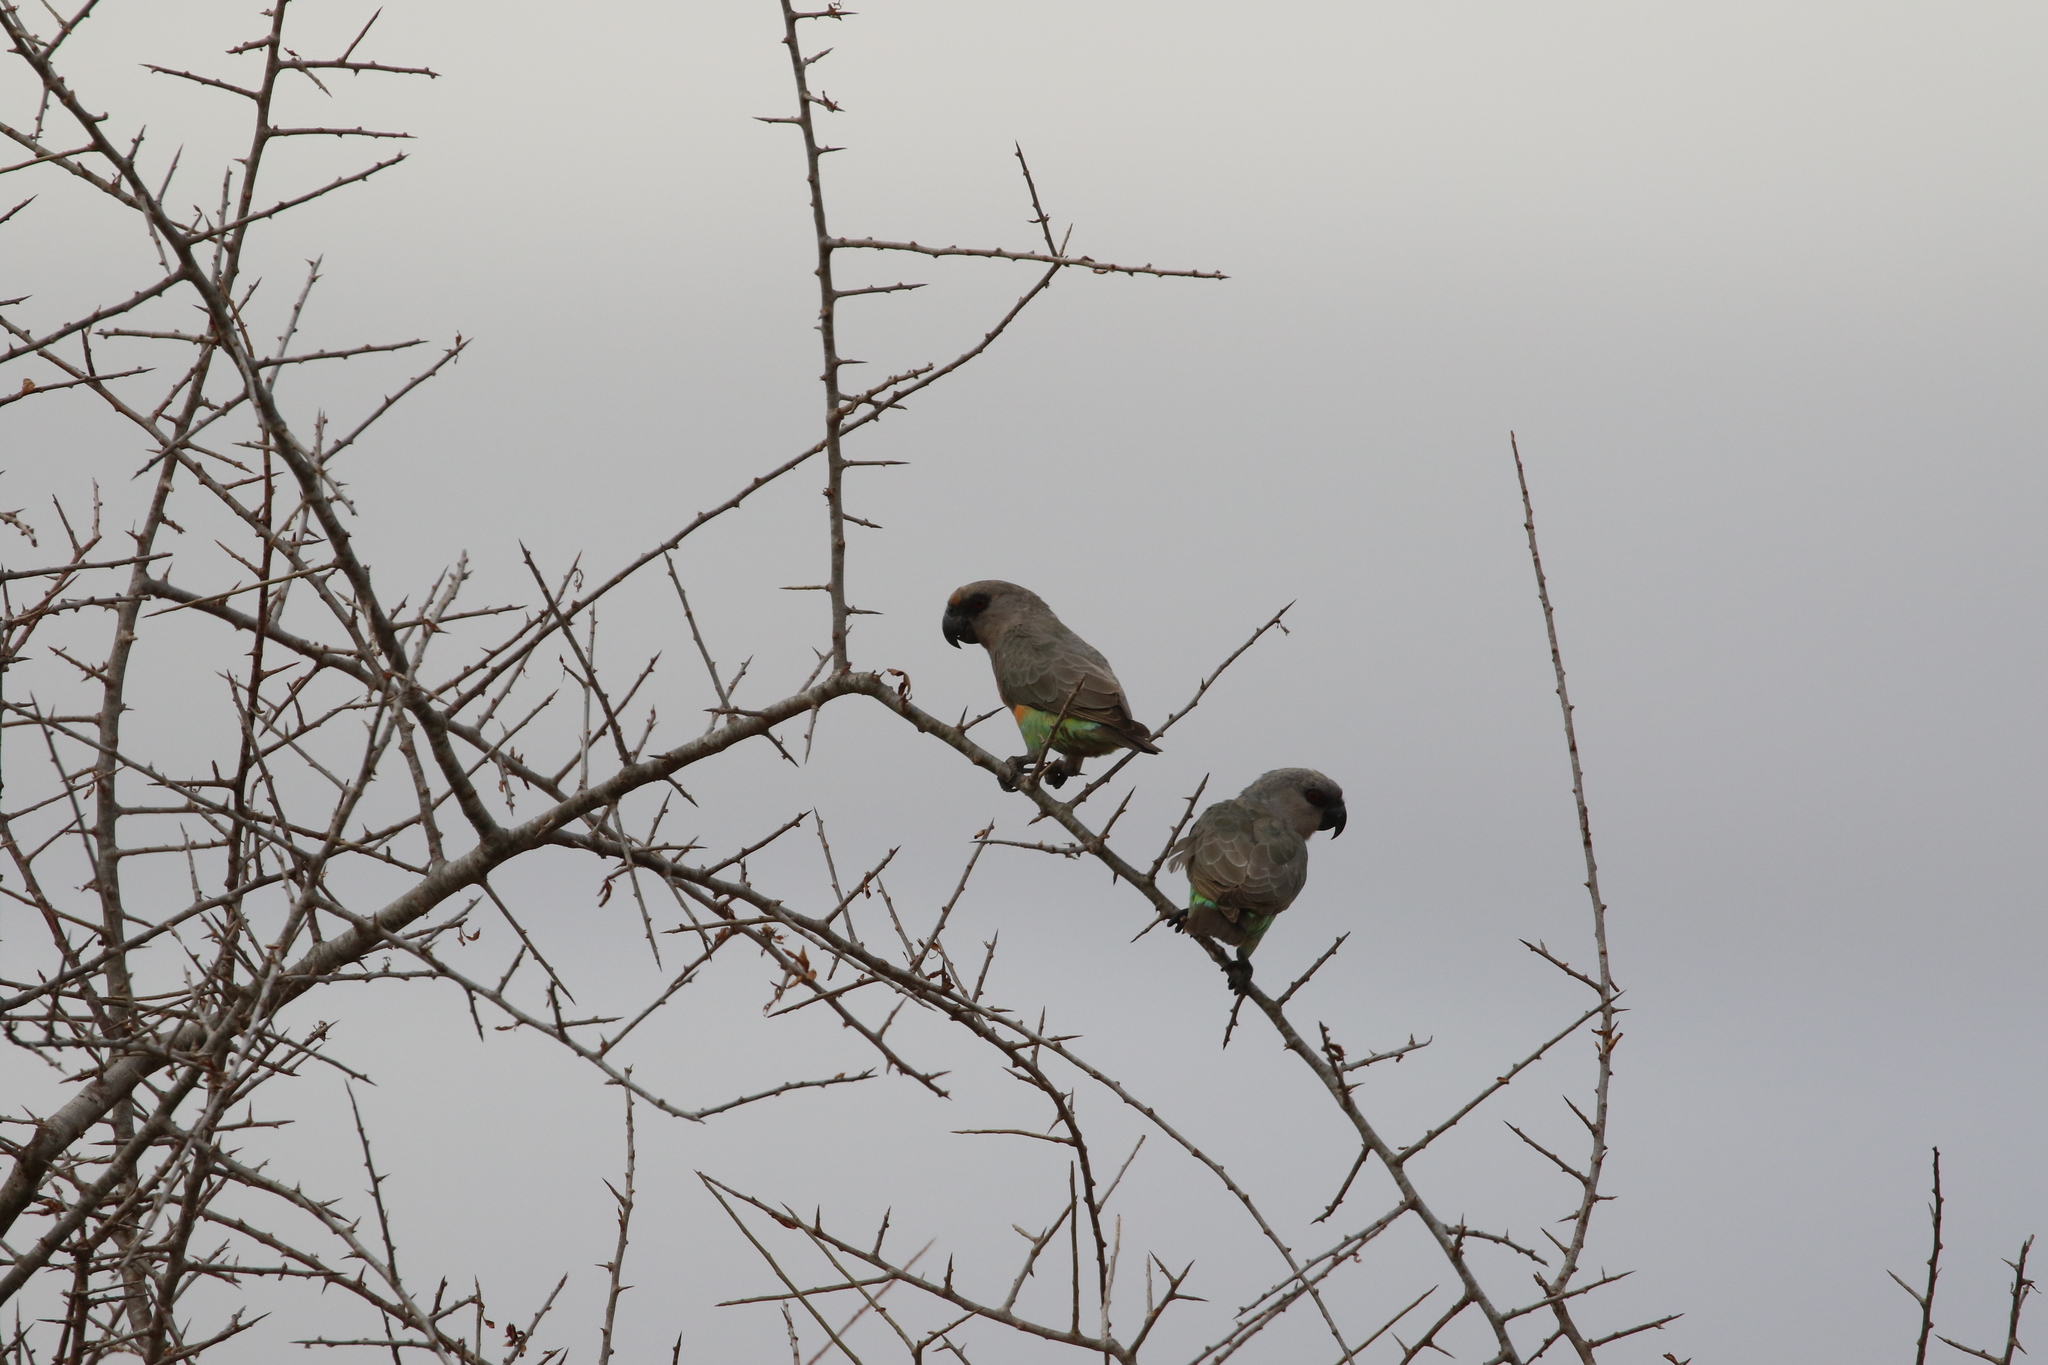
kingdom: Animalia
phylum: Chordata
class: Aves
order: Psittaciformes
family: Psittacidae
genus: Poicephalus
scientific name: Poicephalus rufiventris
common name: Red-bellied parrot
